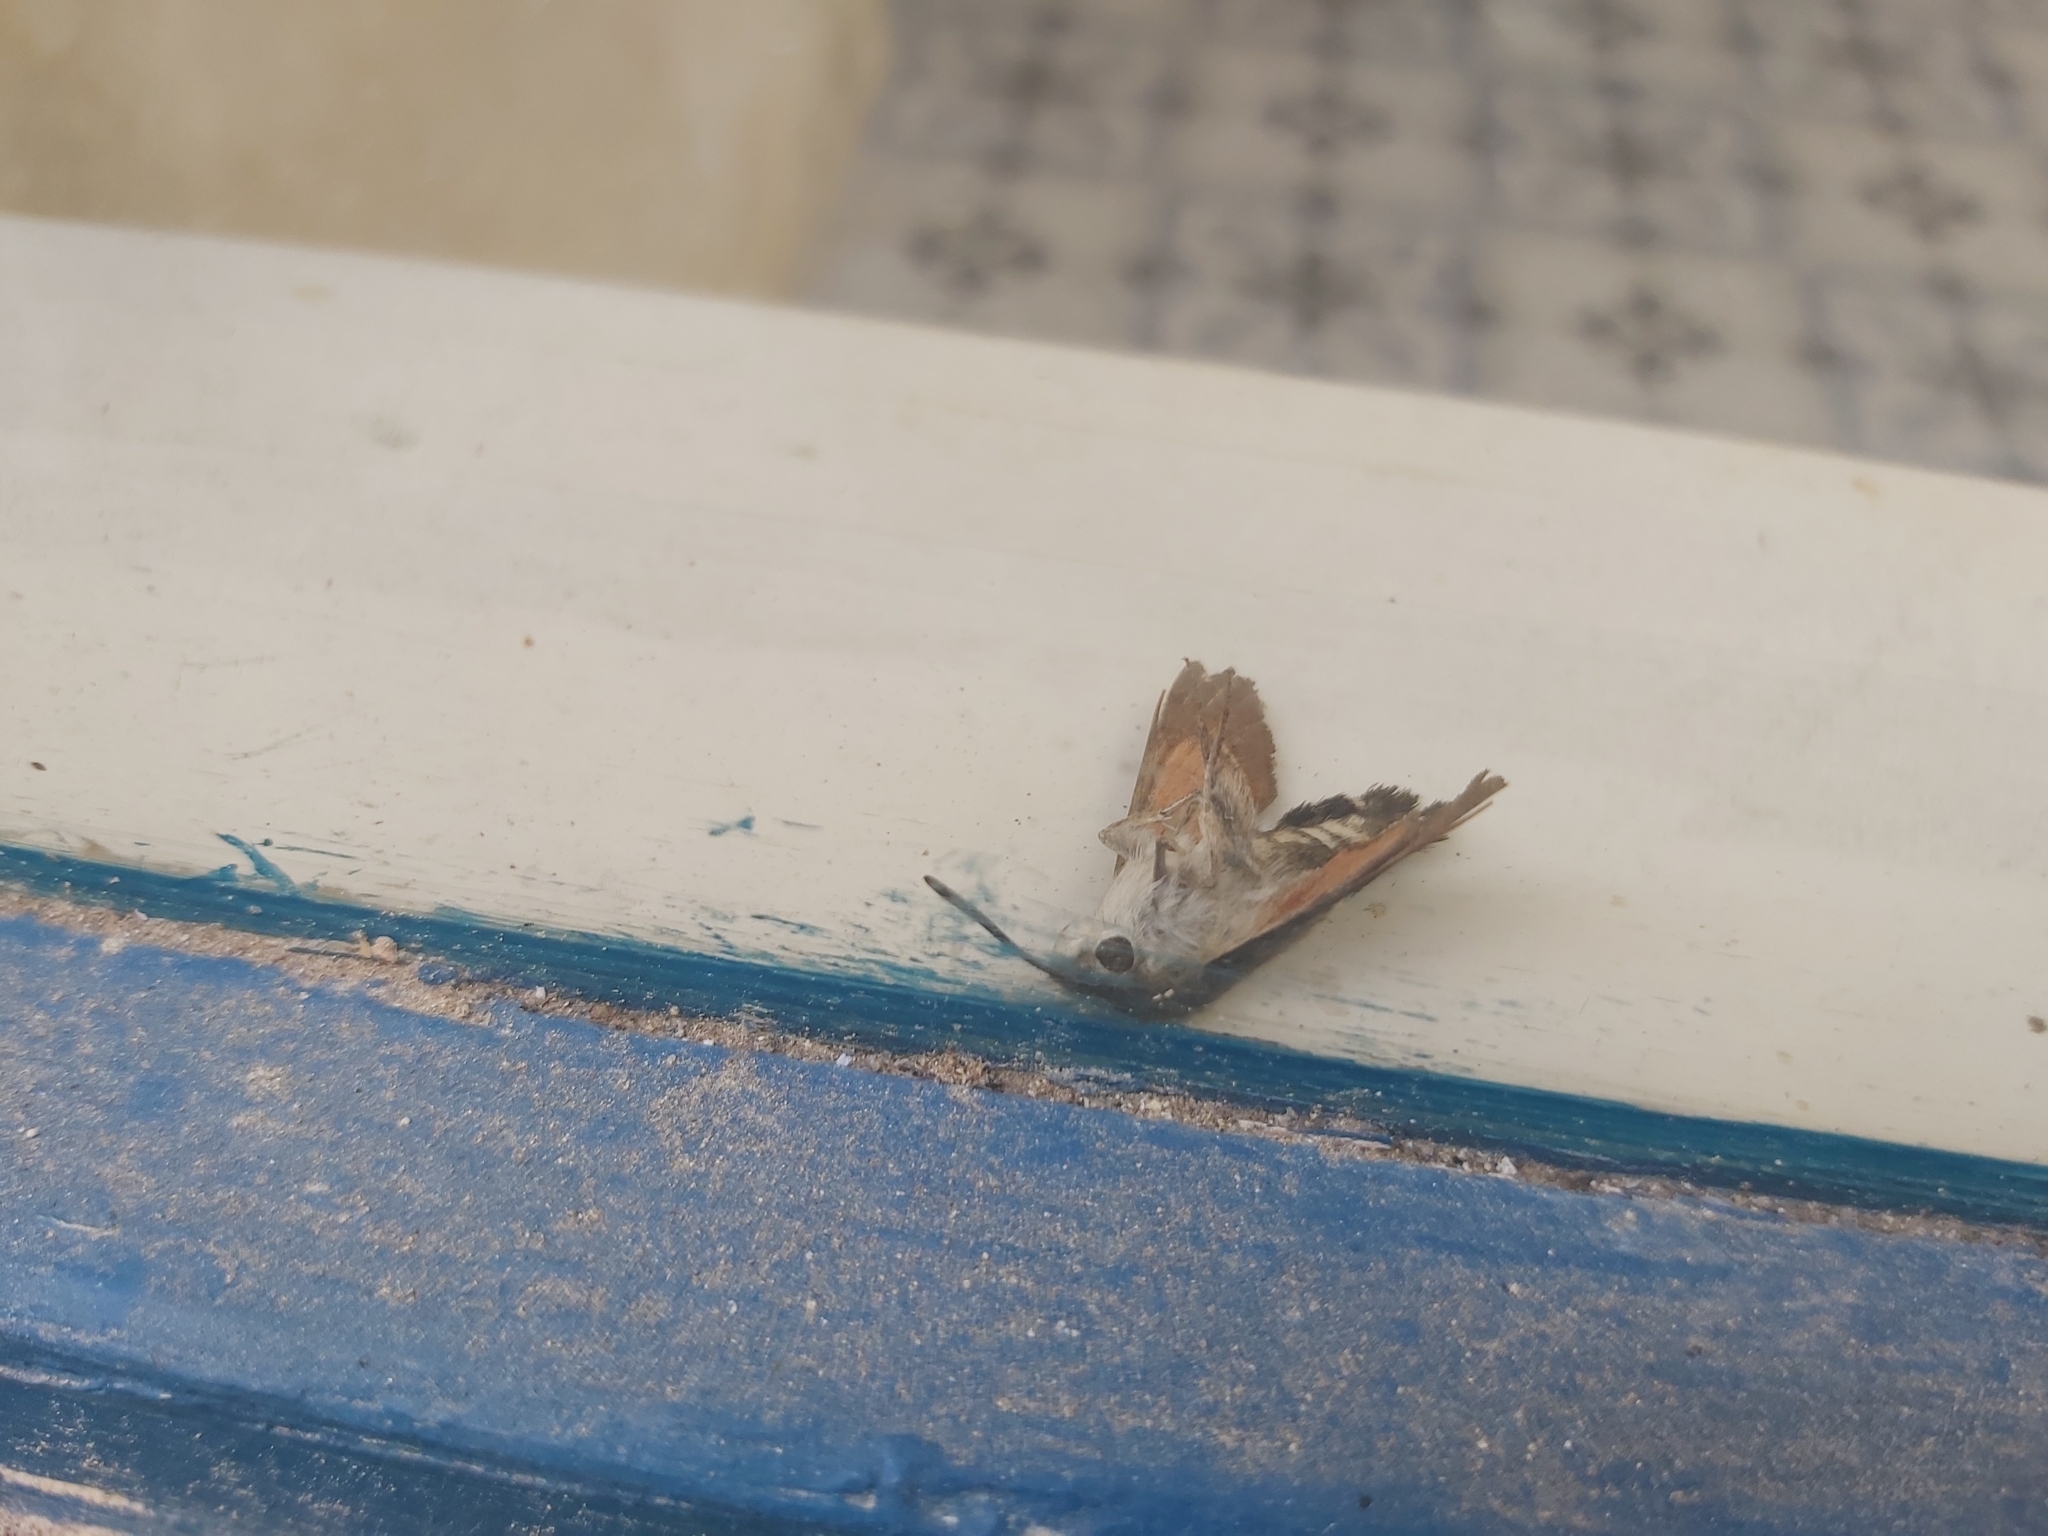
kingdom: Animalia
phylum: Arthropoda
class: Insecta
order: Lepidoptera
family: Sphingidae
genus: Macroglossum
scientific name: Macroglossum stellatarum
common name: Humming-bird hawk-moth
